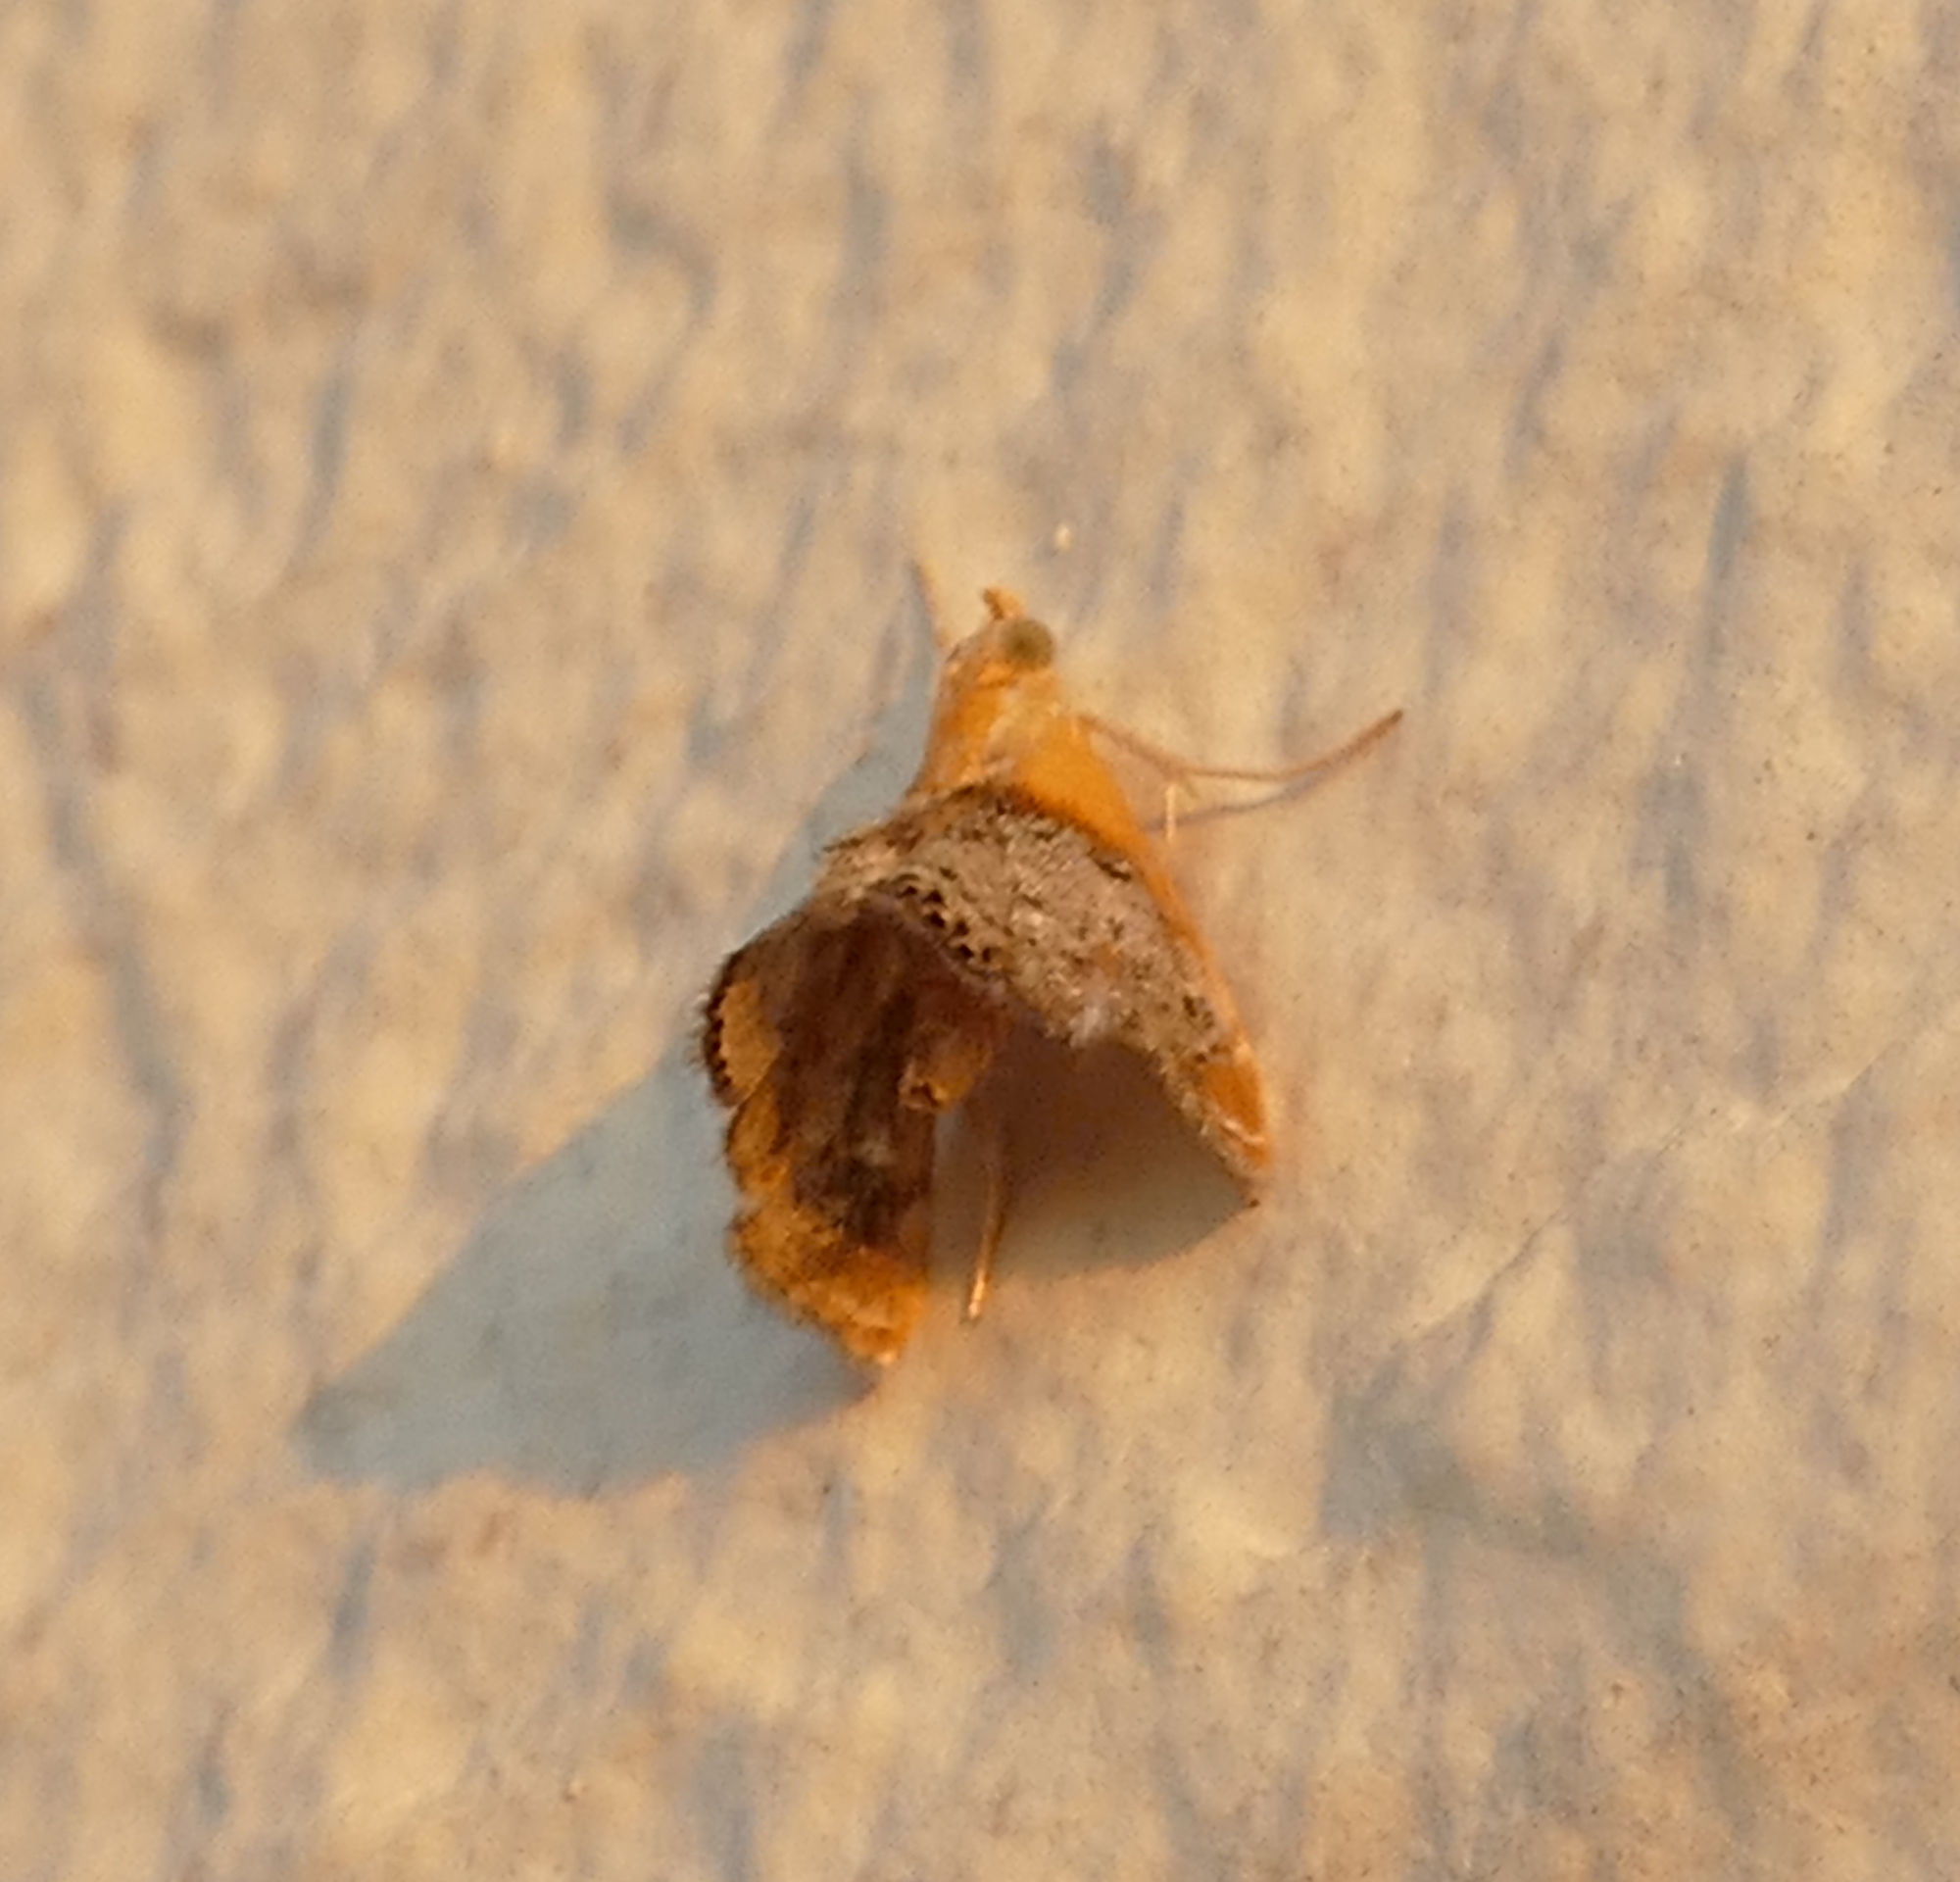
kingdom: Animalia
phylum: Arthropoda
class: Insecta
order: Lepidoptera
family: Crambidae
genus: Chalcoela
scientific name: Chalcoela iphitalis
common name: Sooty-winged chalcoela moth
